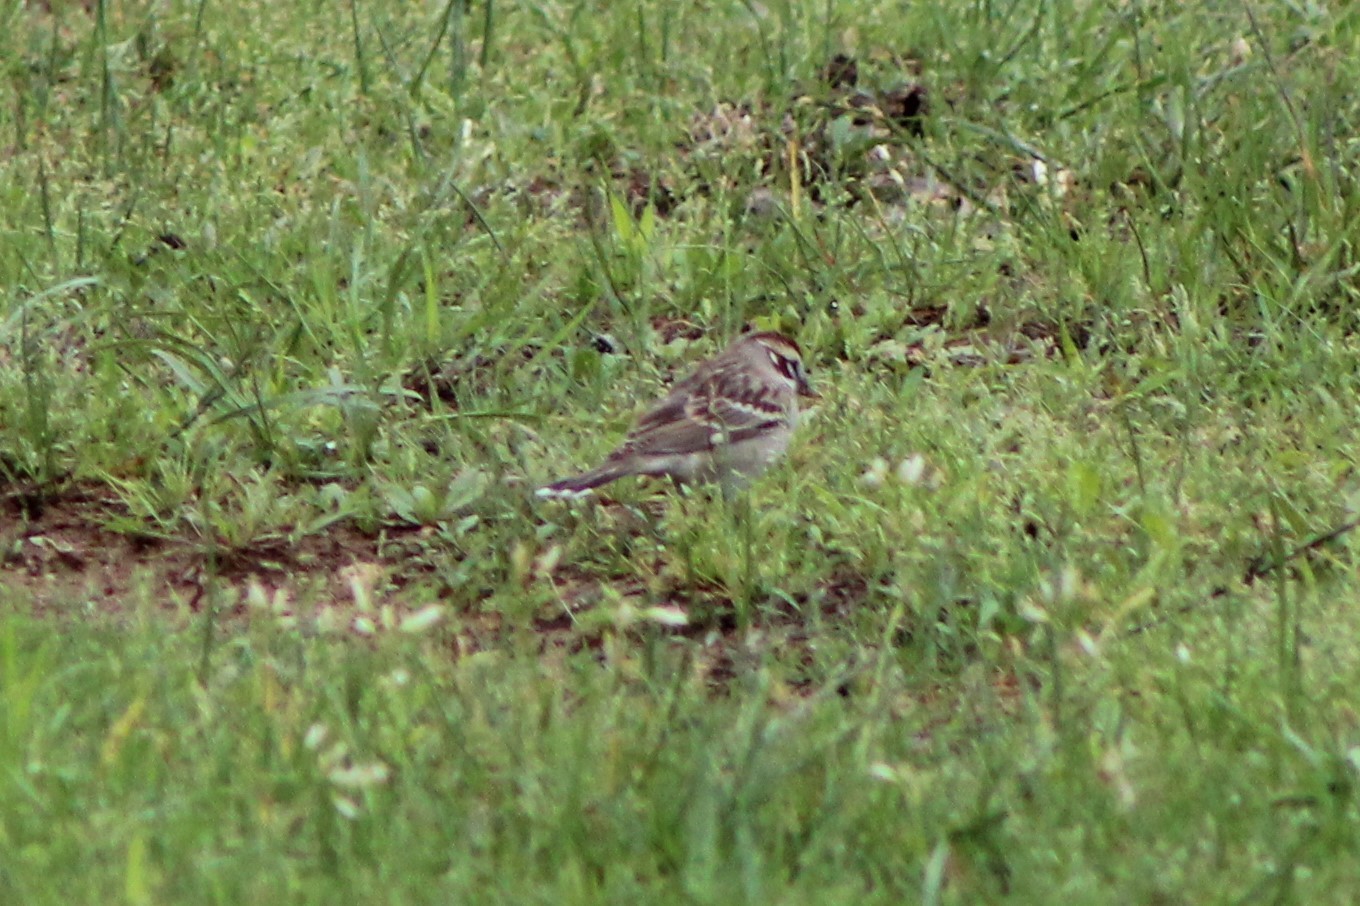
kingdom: Animalia
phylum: Chordata
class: Aves
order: Passeriformes
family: Passerellidae
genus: Chondestes
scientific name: Chondestes grammacus
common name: Lark sparrow
